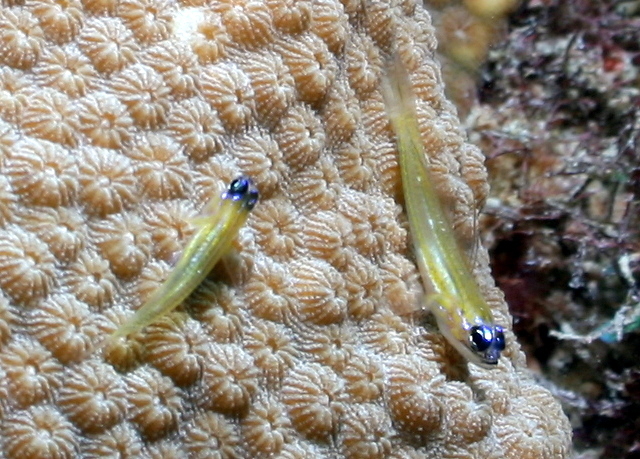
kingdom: Animalia
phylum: Chordata
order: Perciformes
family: Gobiidae
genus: Coryphopterus
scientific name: Coryphopterus lipernes
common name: Peppermint goby
